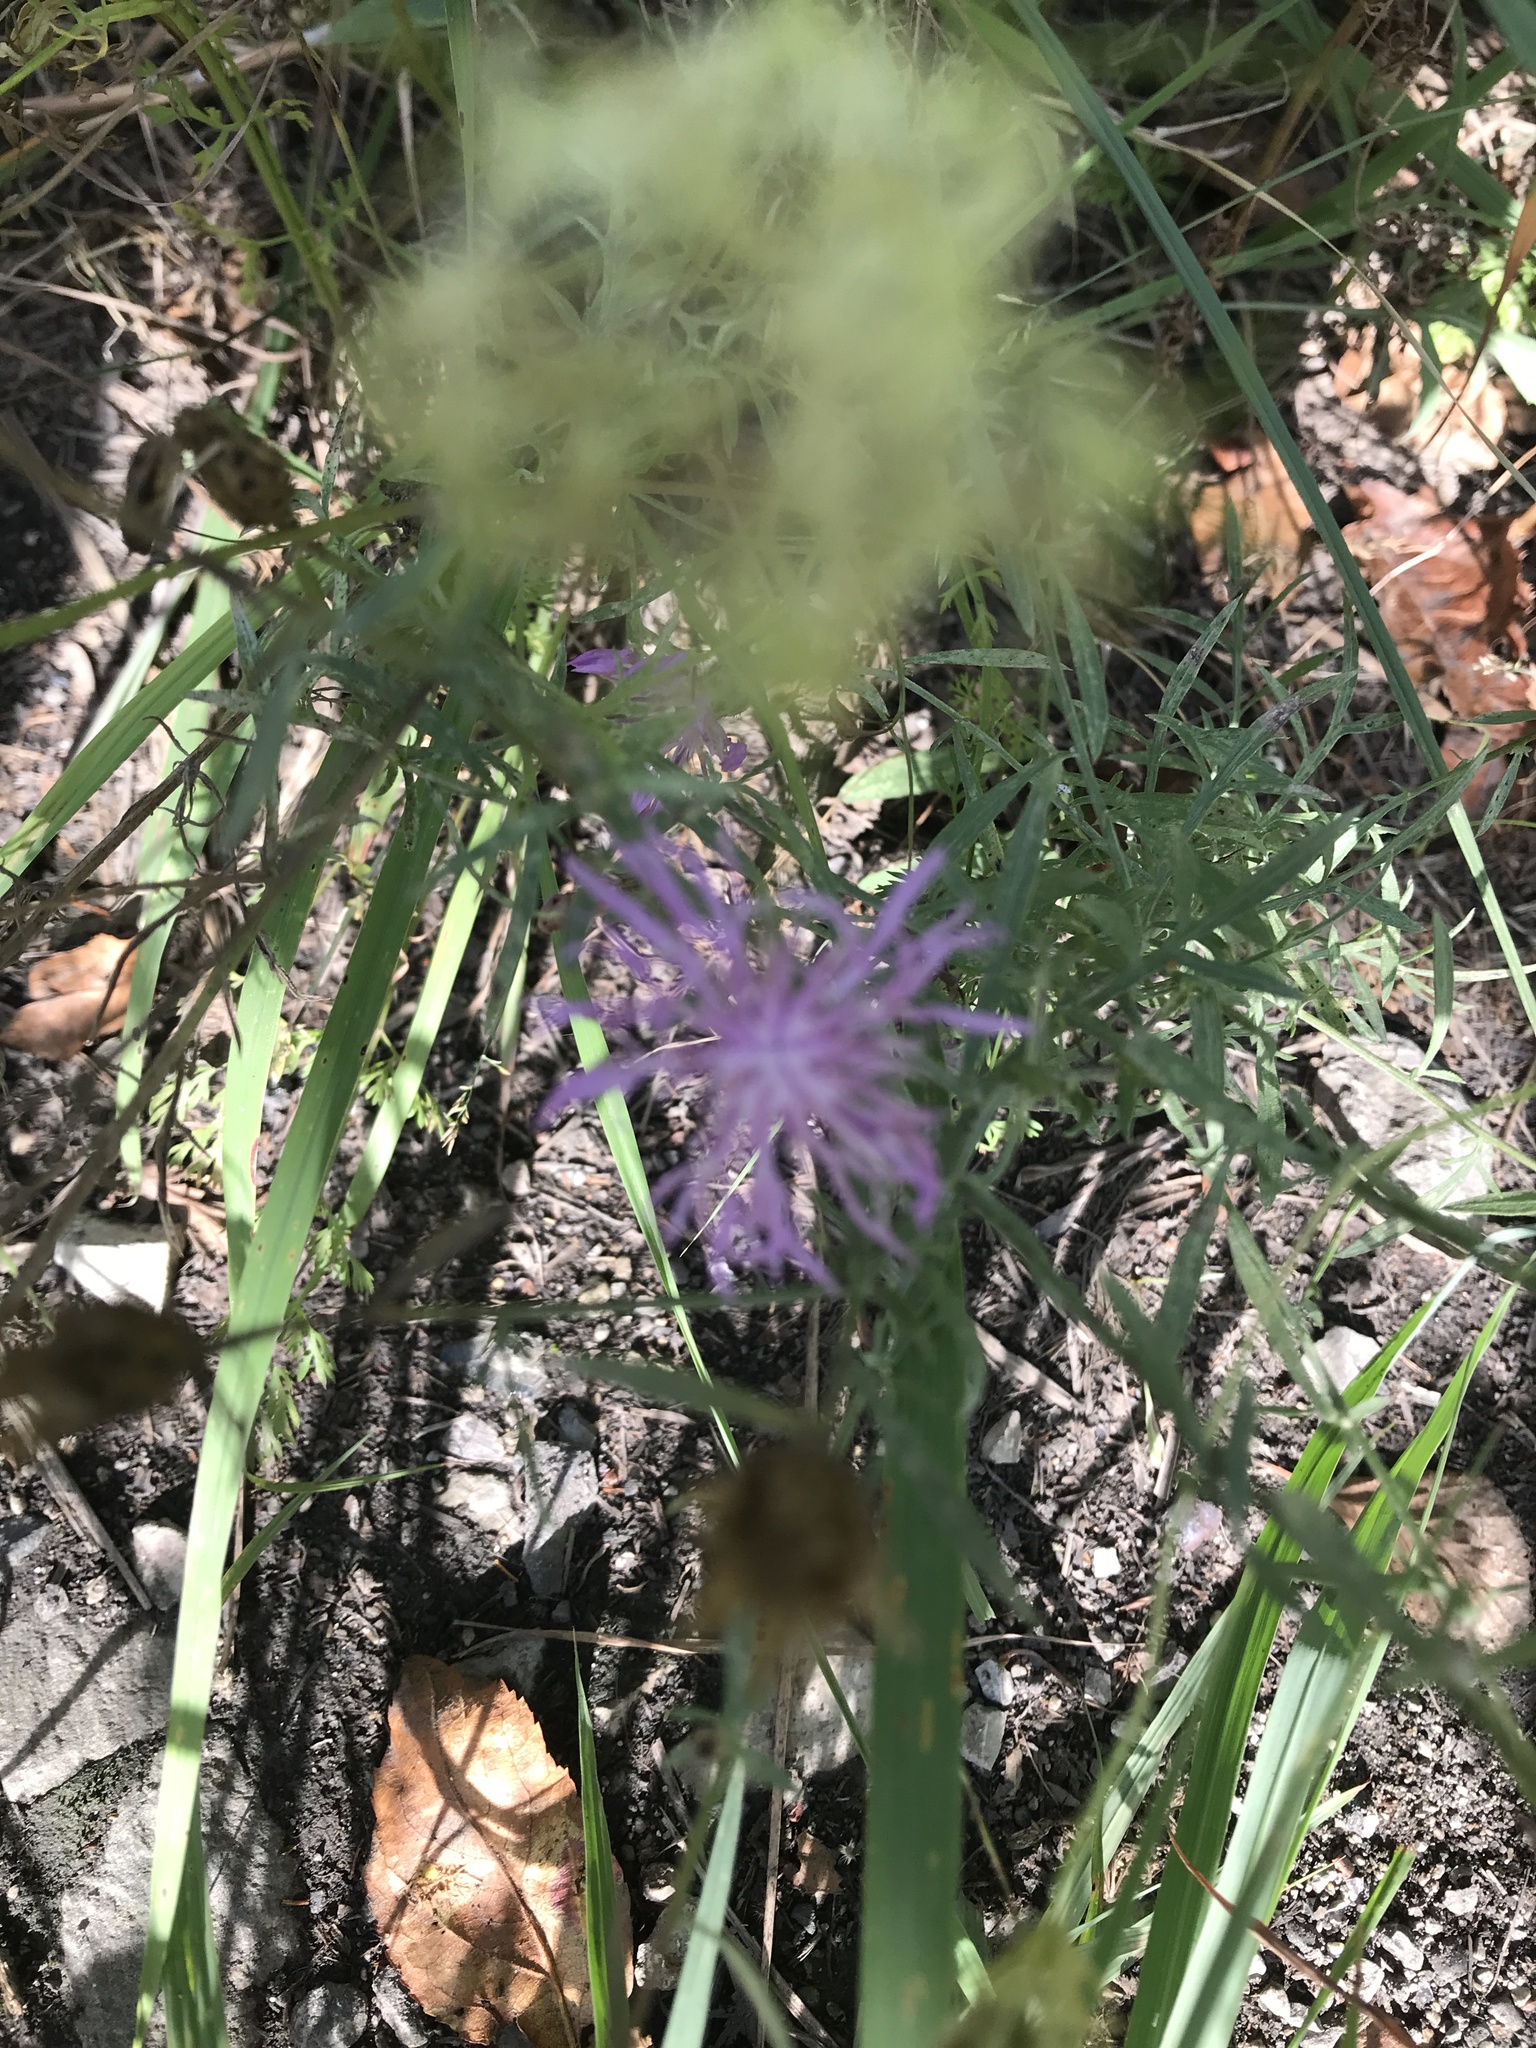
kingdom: Plantae
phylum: Tracheophyta
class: Magnoliopsida
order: Asterales
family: Asteraceae
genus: Centaurea
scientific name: Centaurea stoebe
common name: Spotted knapweed
